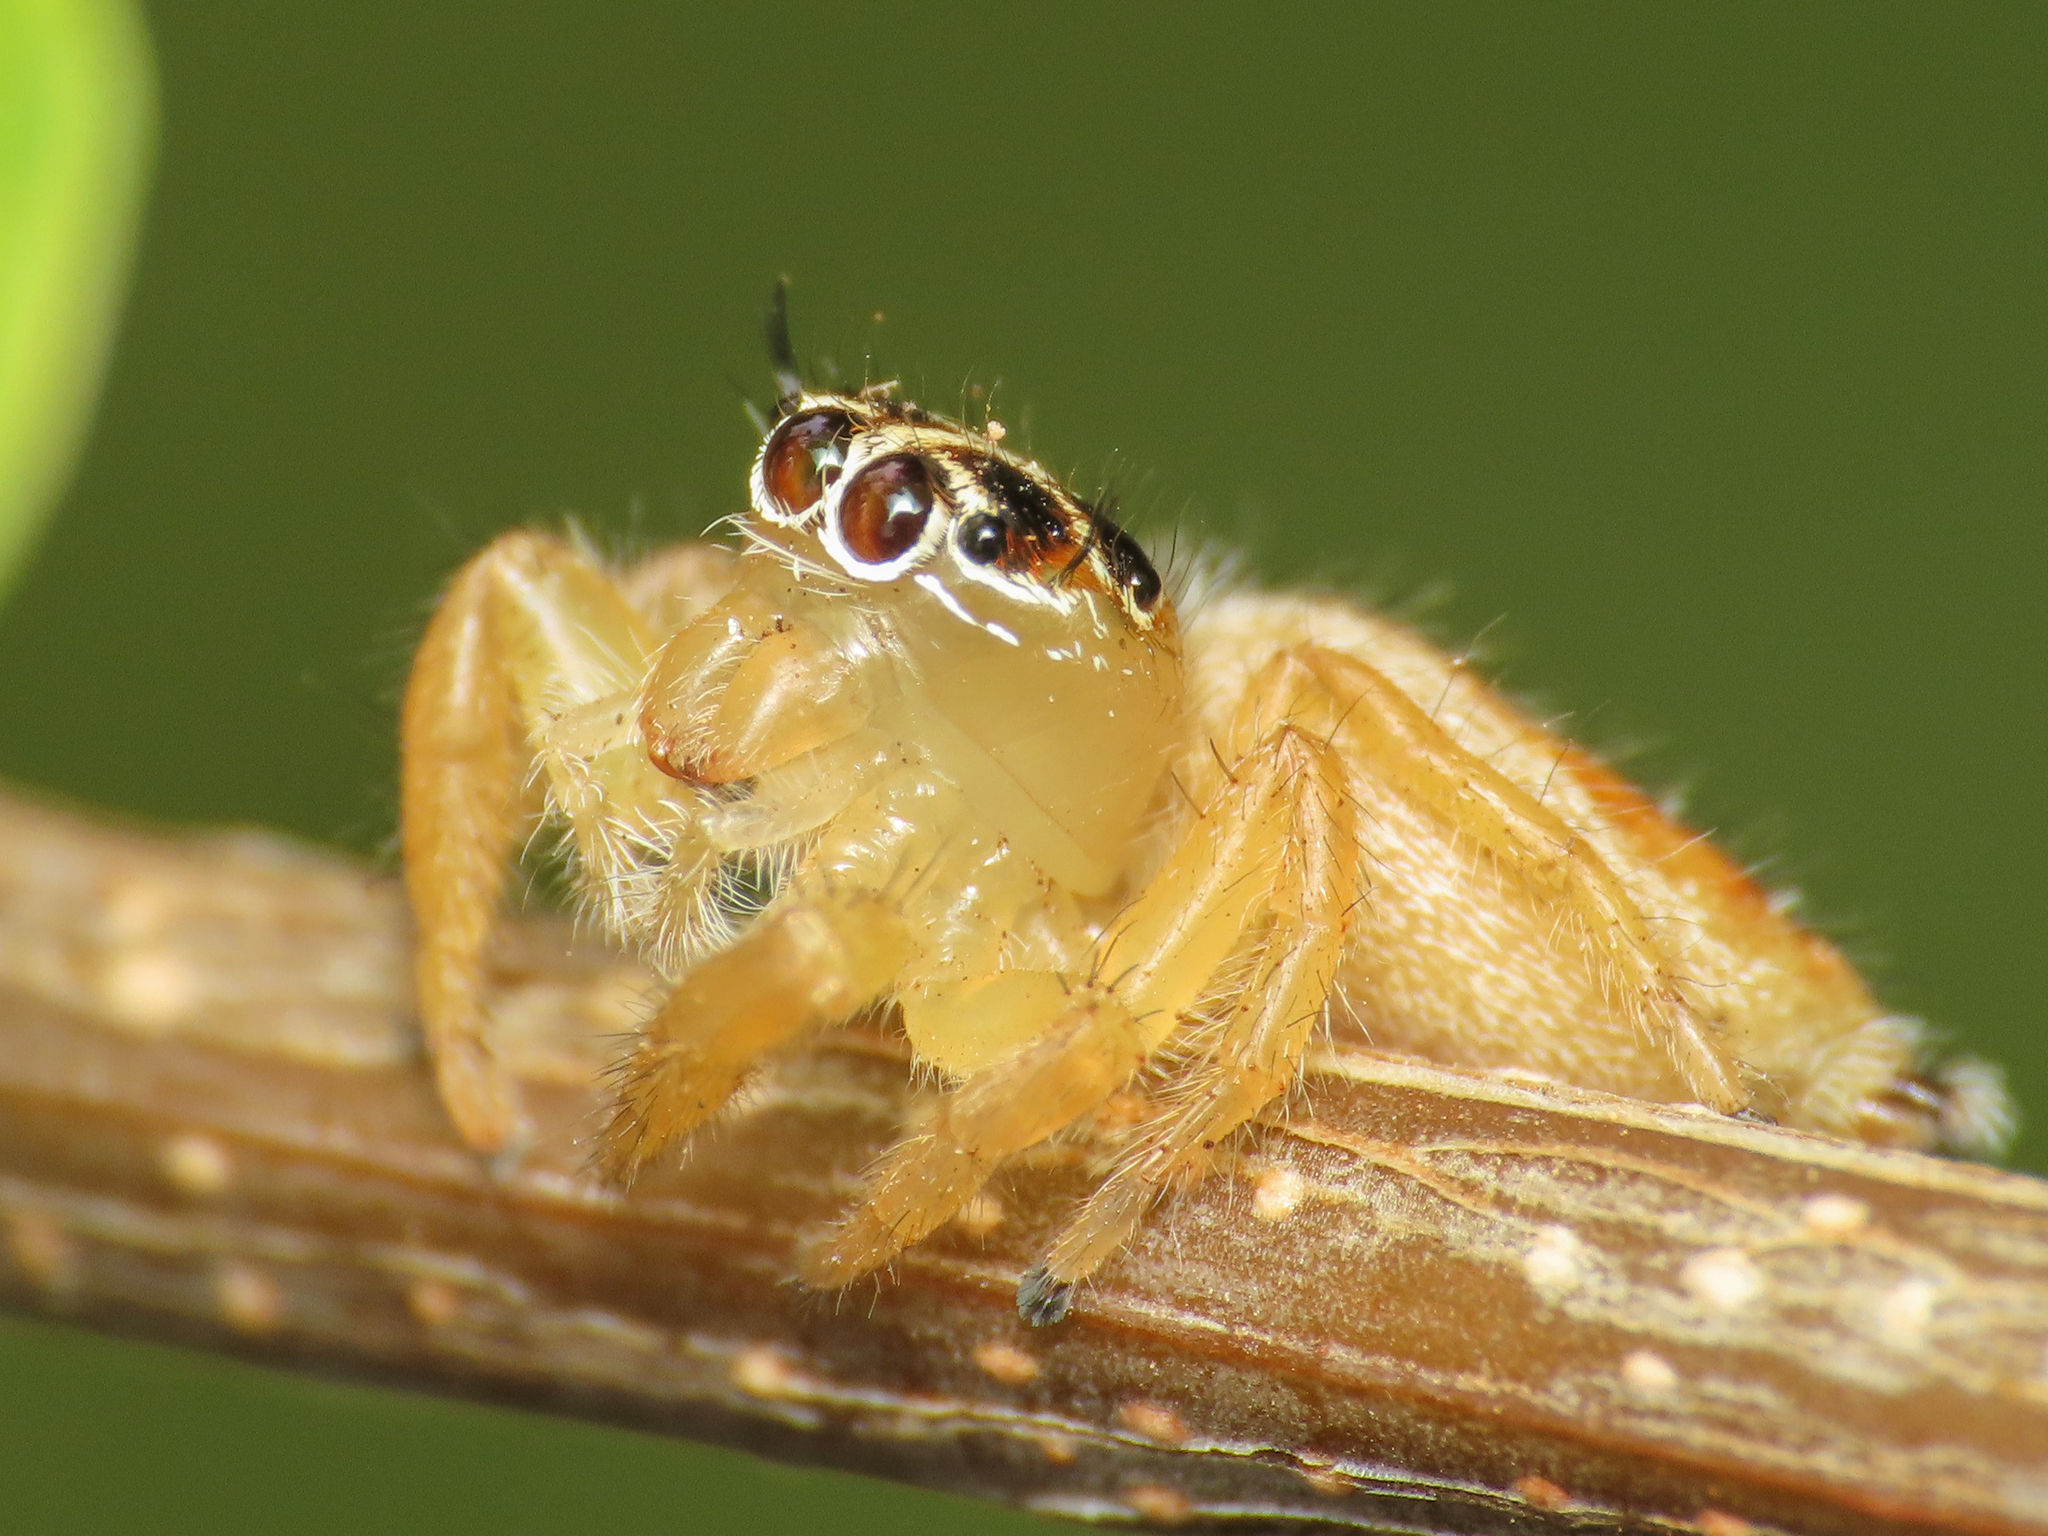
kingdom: Animalia
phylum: Arthropoda
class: Arachnida
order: Araneae
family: Salticidae
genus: Thyene
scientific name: Thyene inflata
